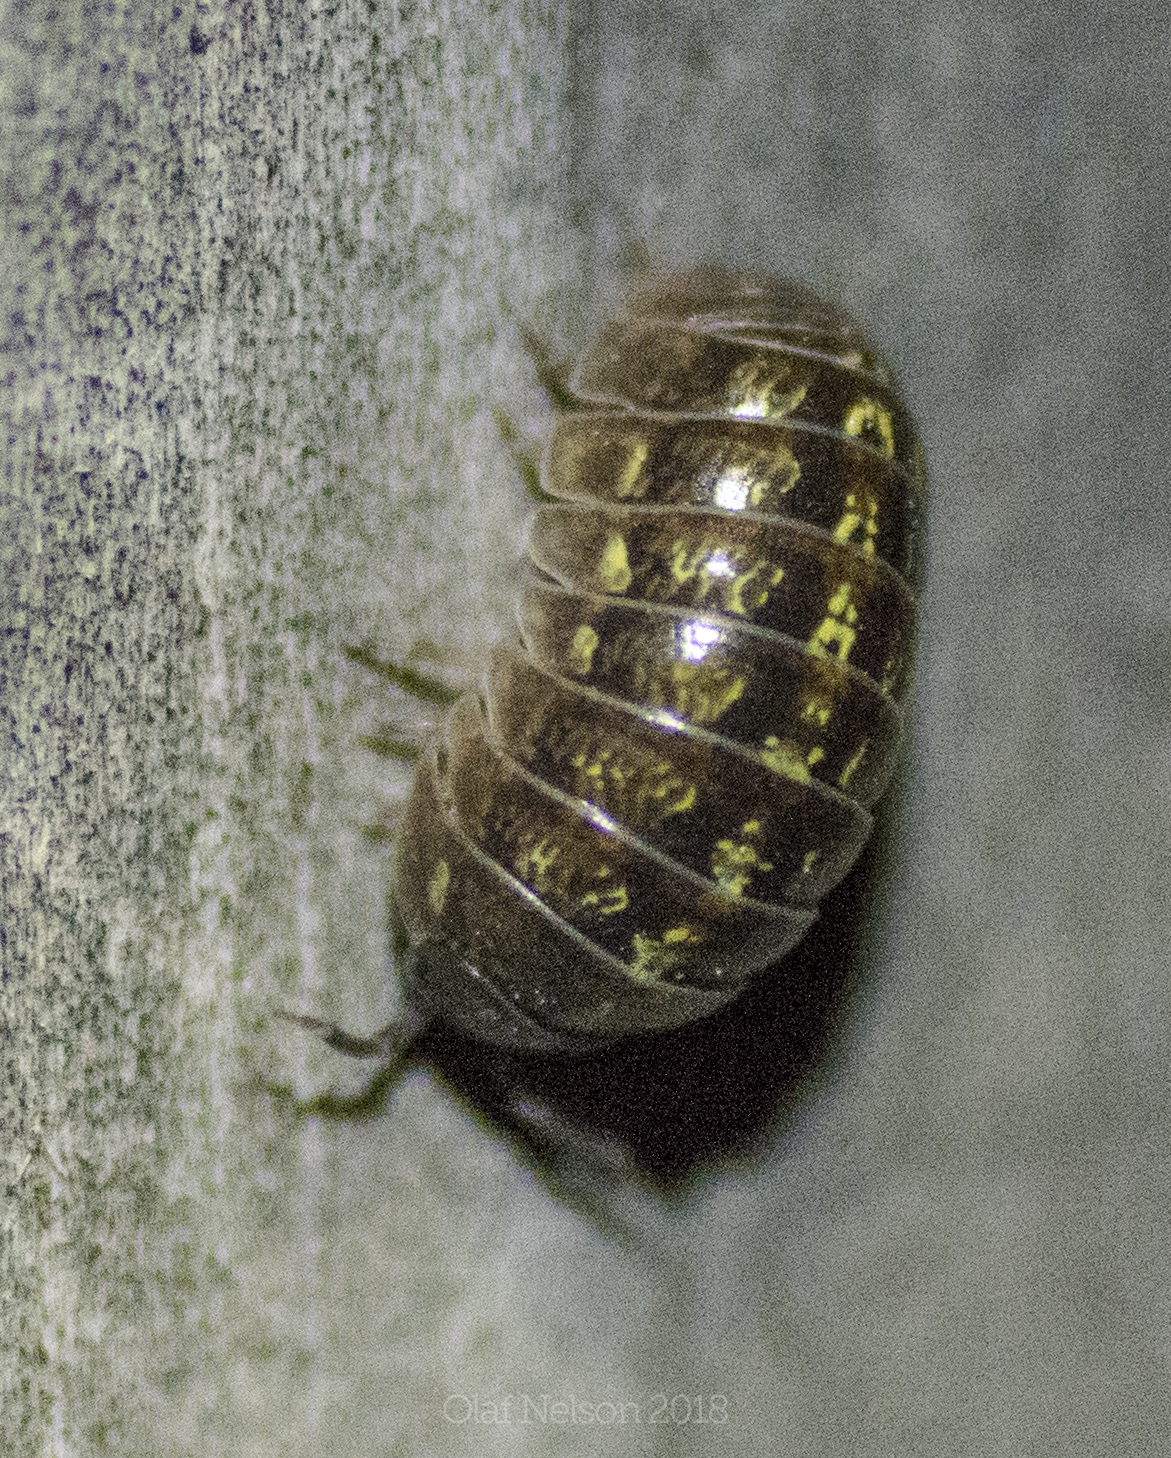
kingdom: Animalia
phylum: Arthropoda
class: Malacostraca
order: Isopoda
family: Armadillidiidae
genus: Armadillidium
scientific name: Armadillidium vulgare
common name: Common pill woodlouse
